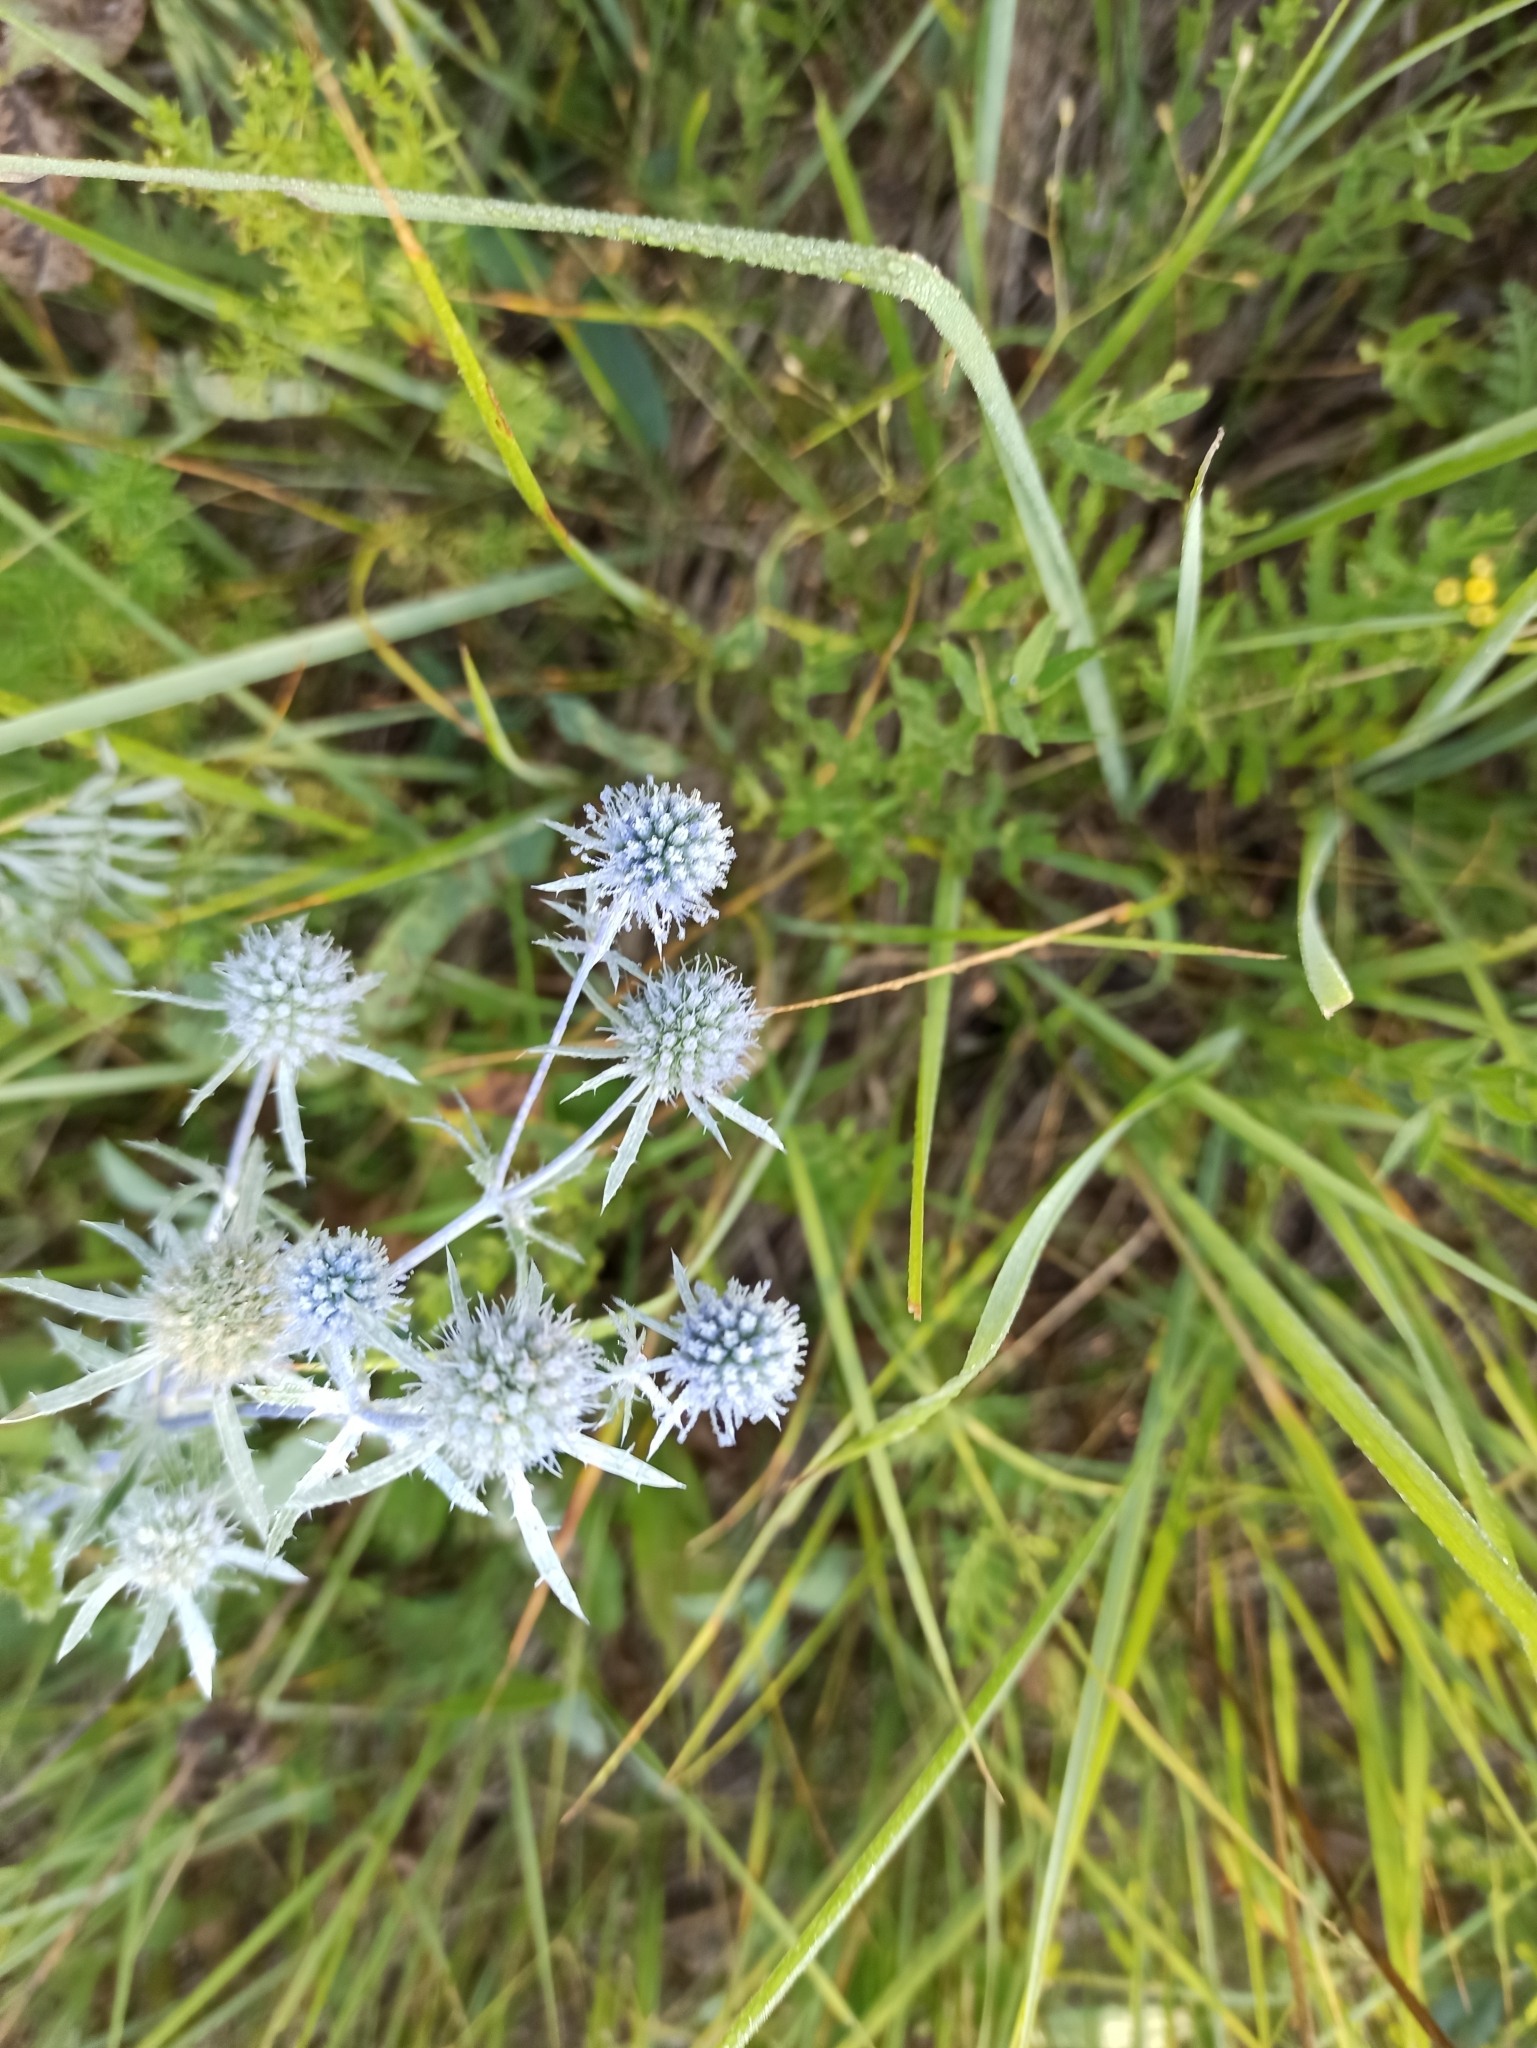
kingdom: Plantae
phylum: Tracheophyta
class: Magnoliopsida
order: Apiales
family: Apiaceae
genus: Eryngium
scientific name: Eryngium planum
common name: Blue eryngo
